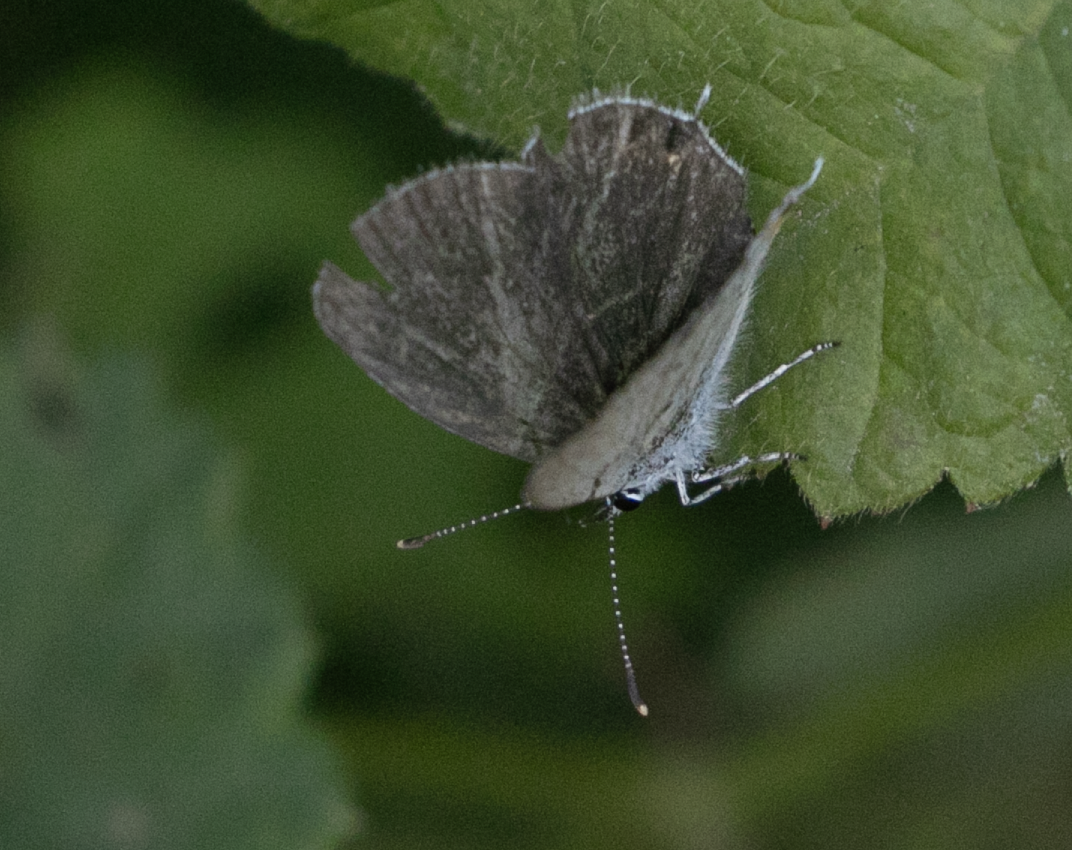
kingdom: Animalia
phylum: Arthropoda
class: Insecta
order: Lepidoptera
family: Lycaenidae
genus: Elkalyce
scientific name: Elkalyce argiades
